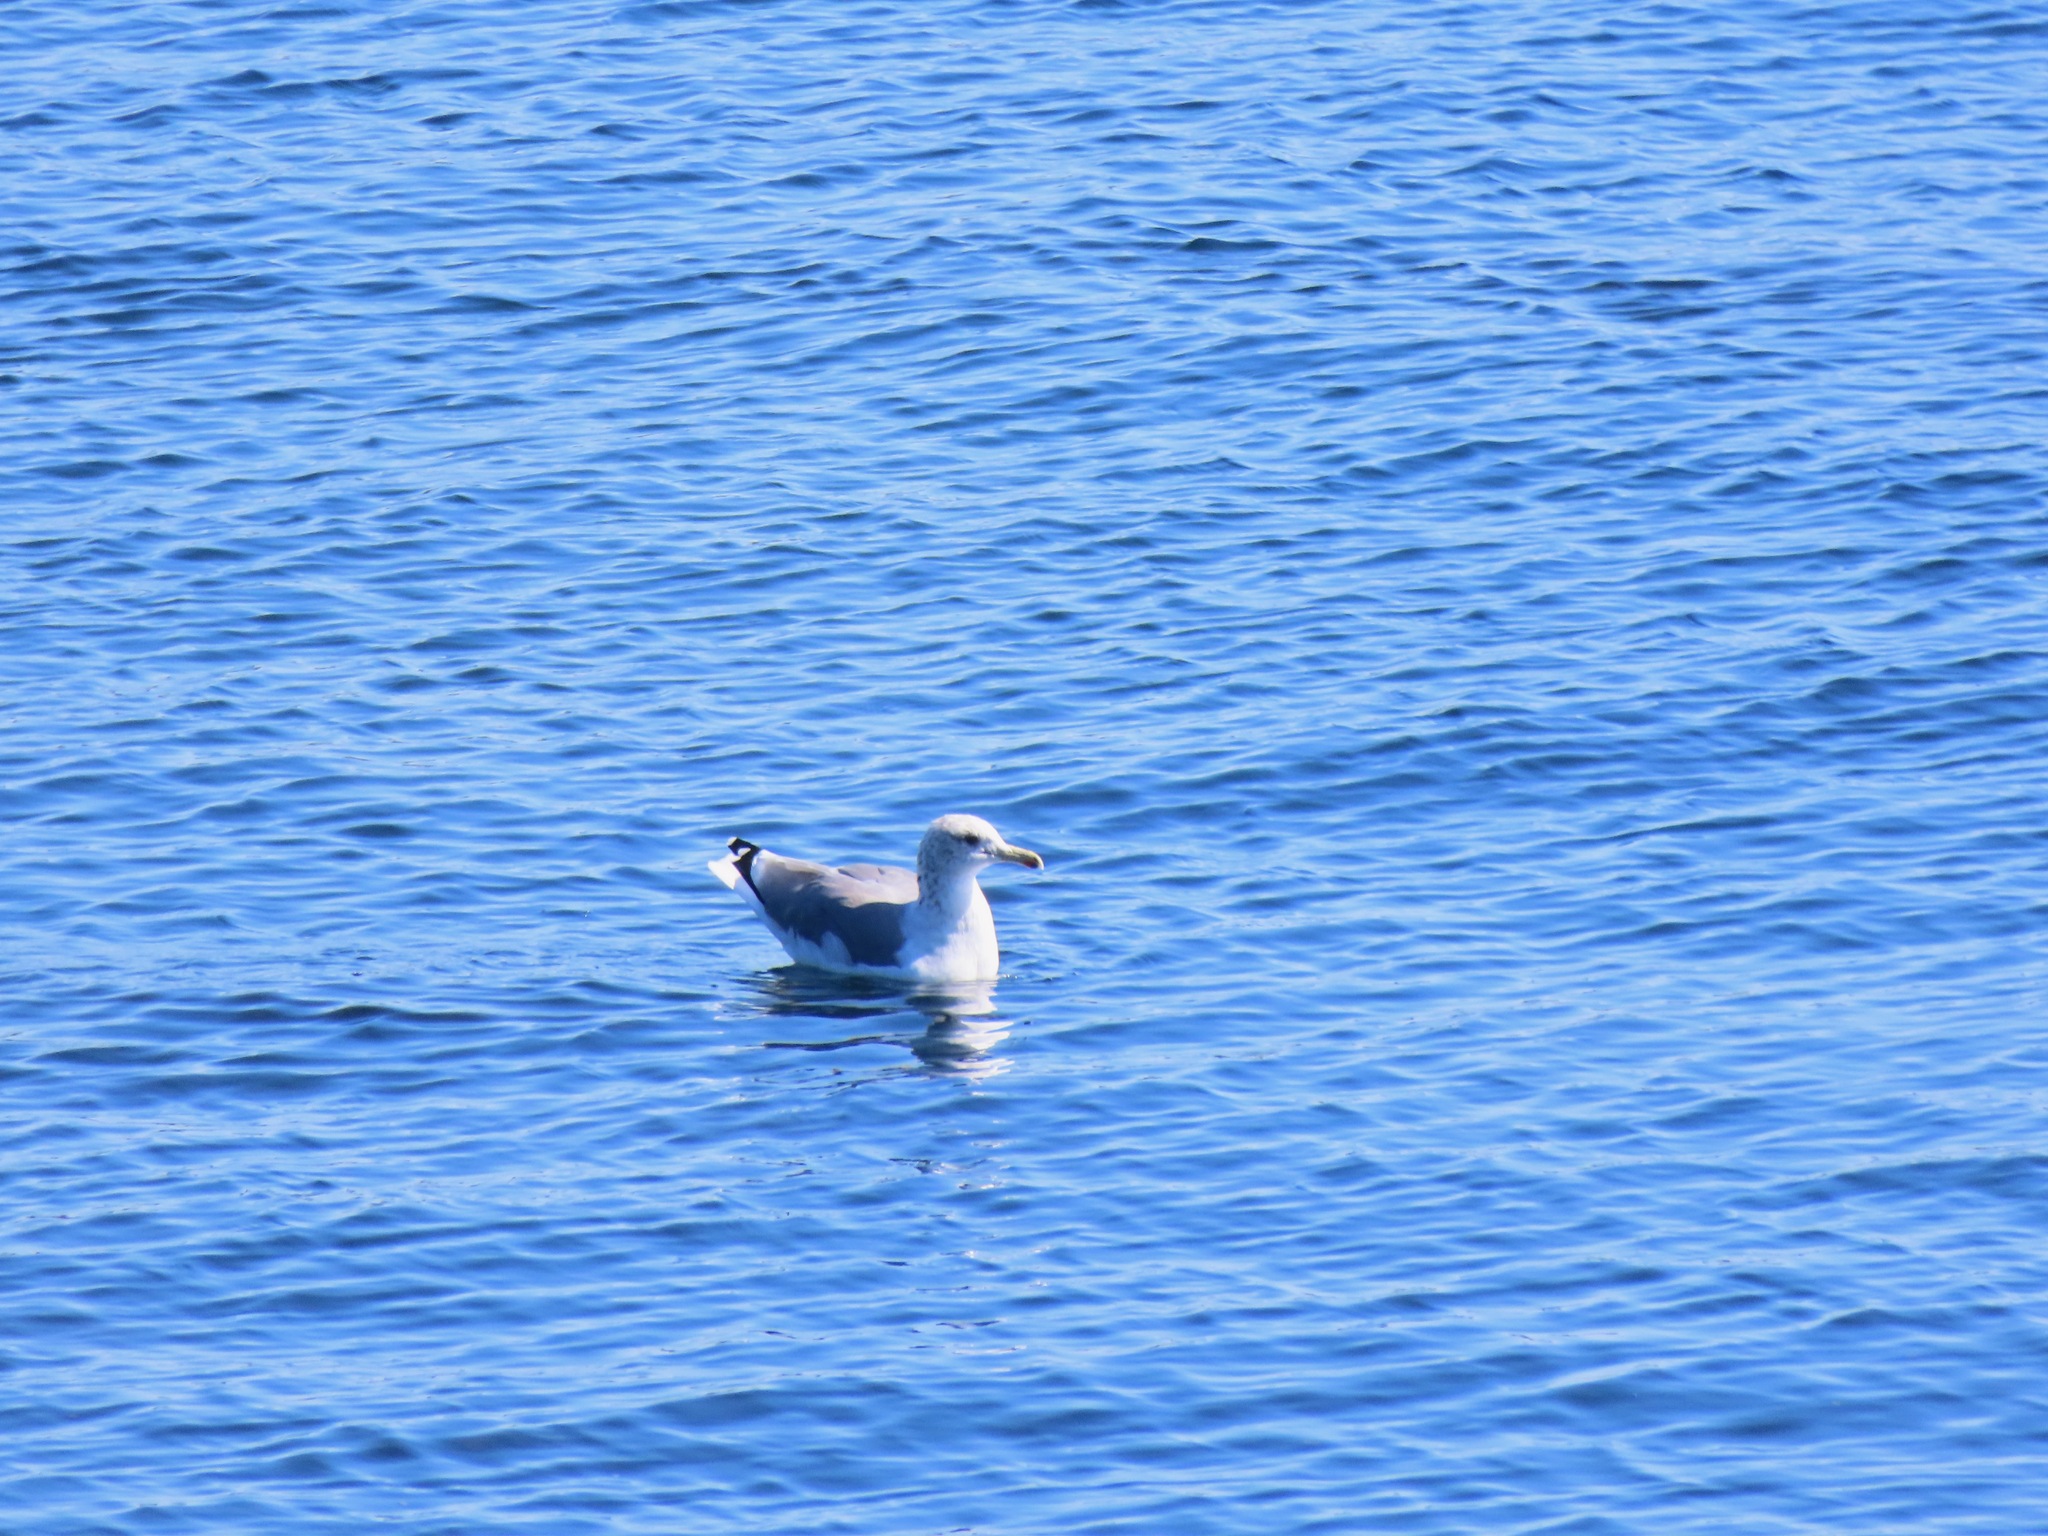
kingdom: Animalia
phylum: Chordata
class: Aves
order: Charadriiformes
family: Laridae
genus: Larus
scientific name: Larus californicus
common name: California gull
